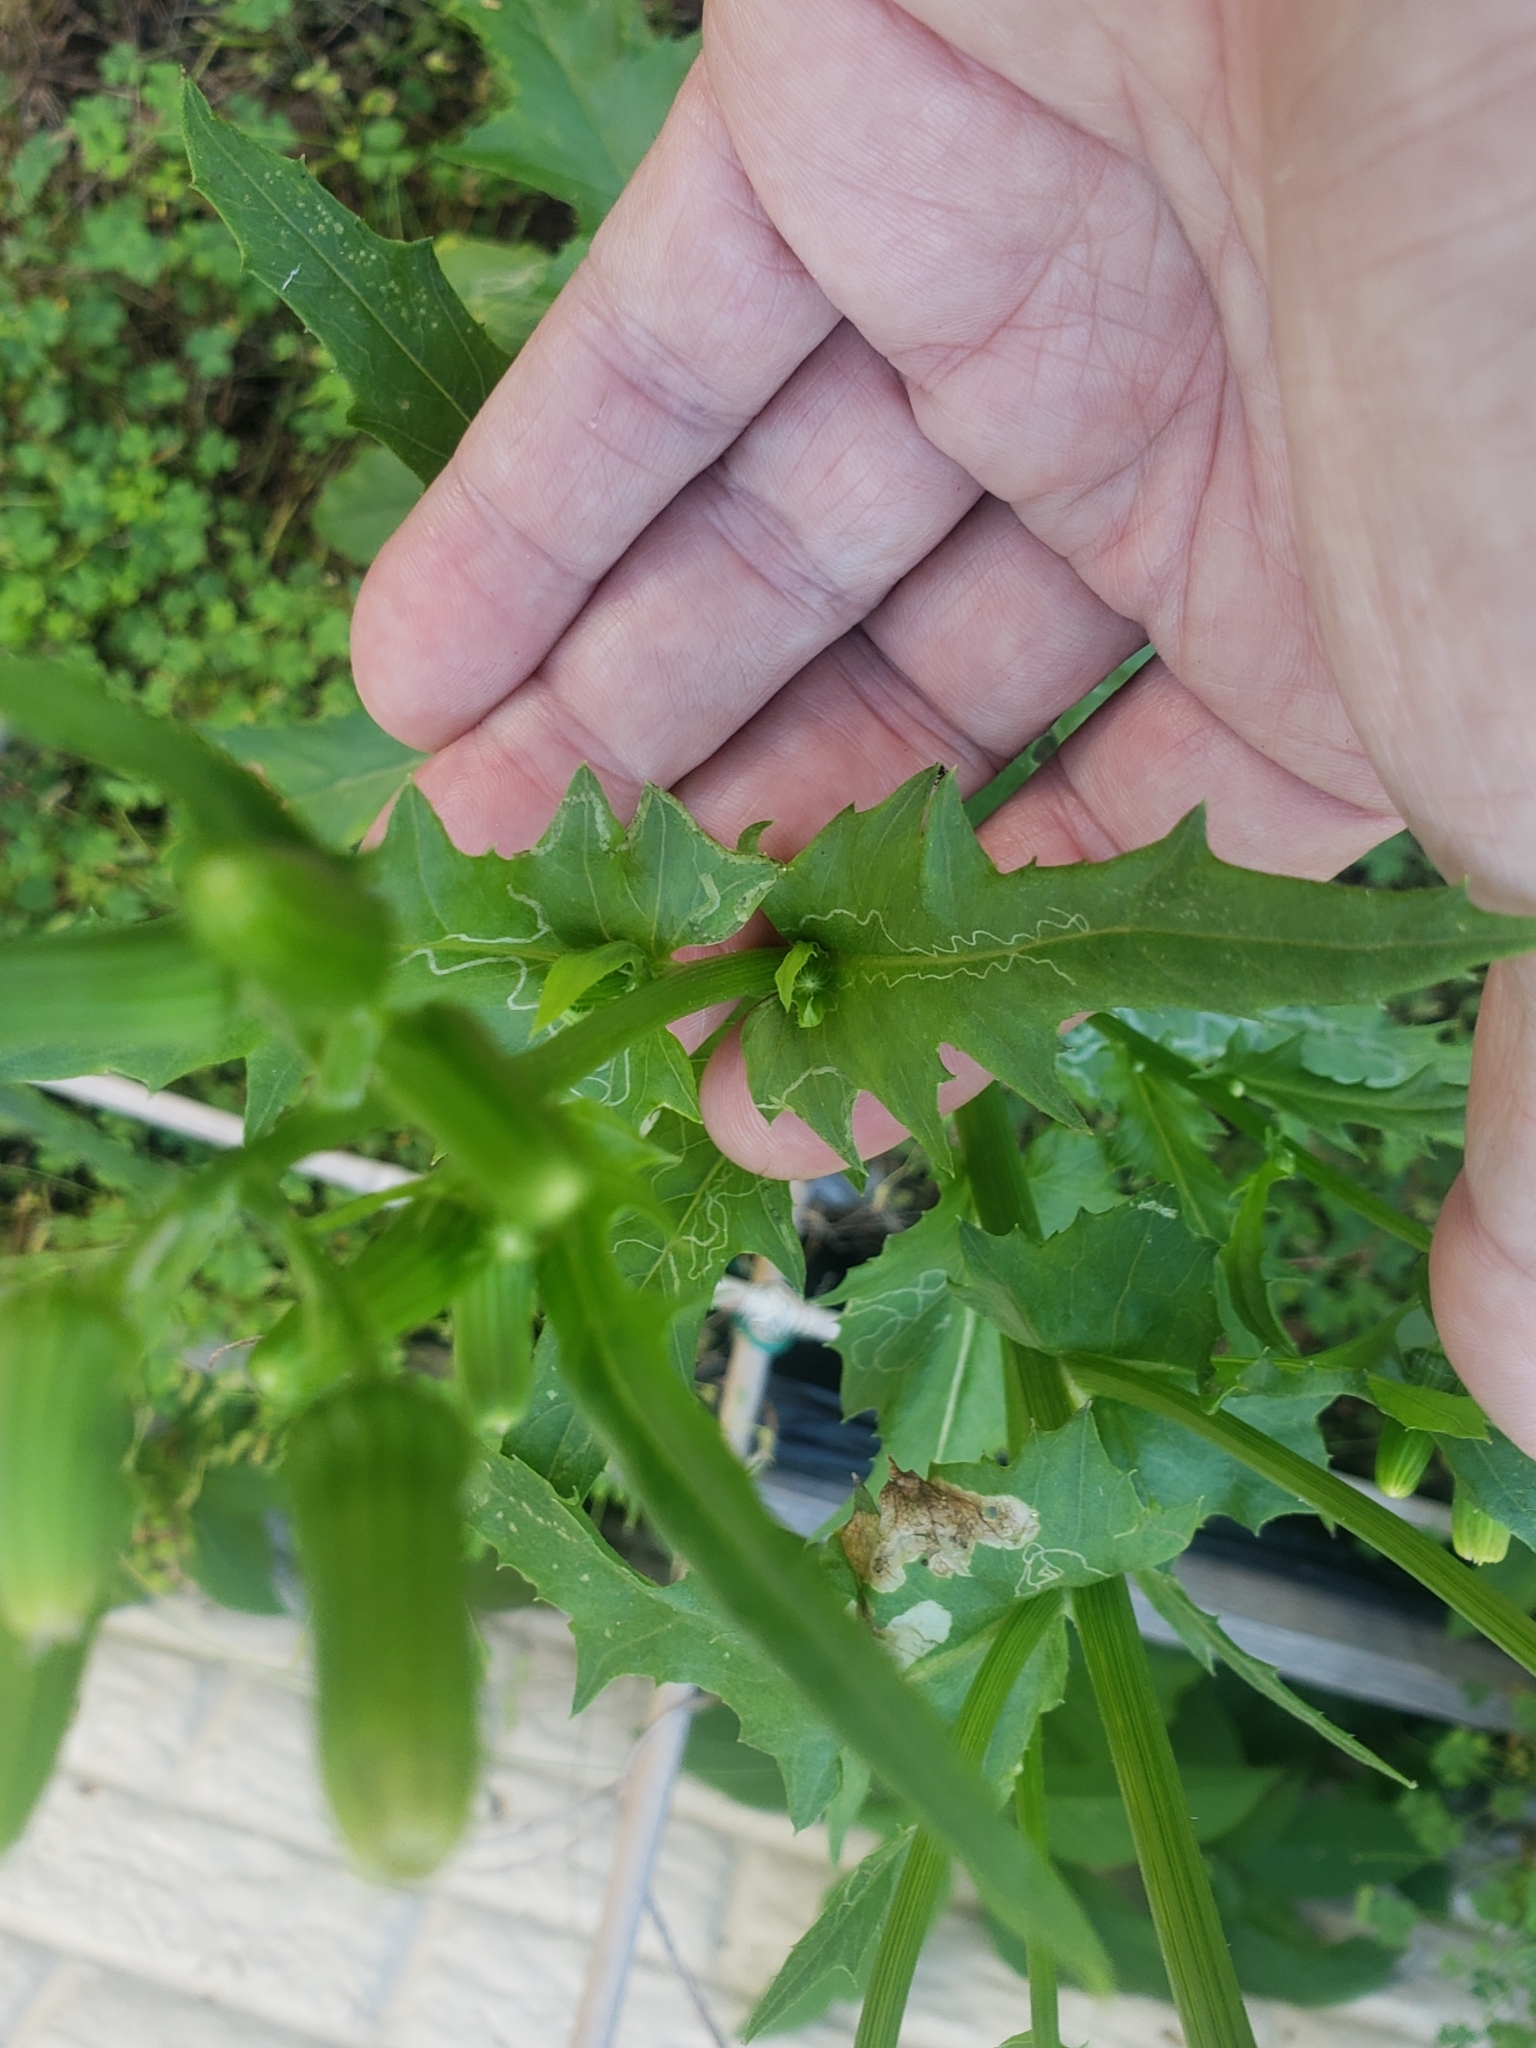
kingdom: Animalia
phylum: Arthropoda
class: Insecta
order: Lepidoptera
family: Gracillariidae
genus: Phyllocnistis
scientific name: Phyllocnistis insignis
